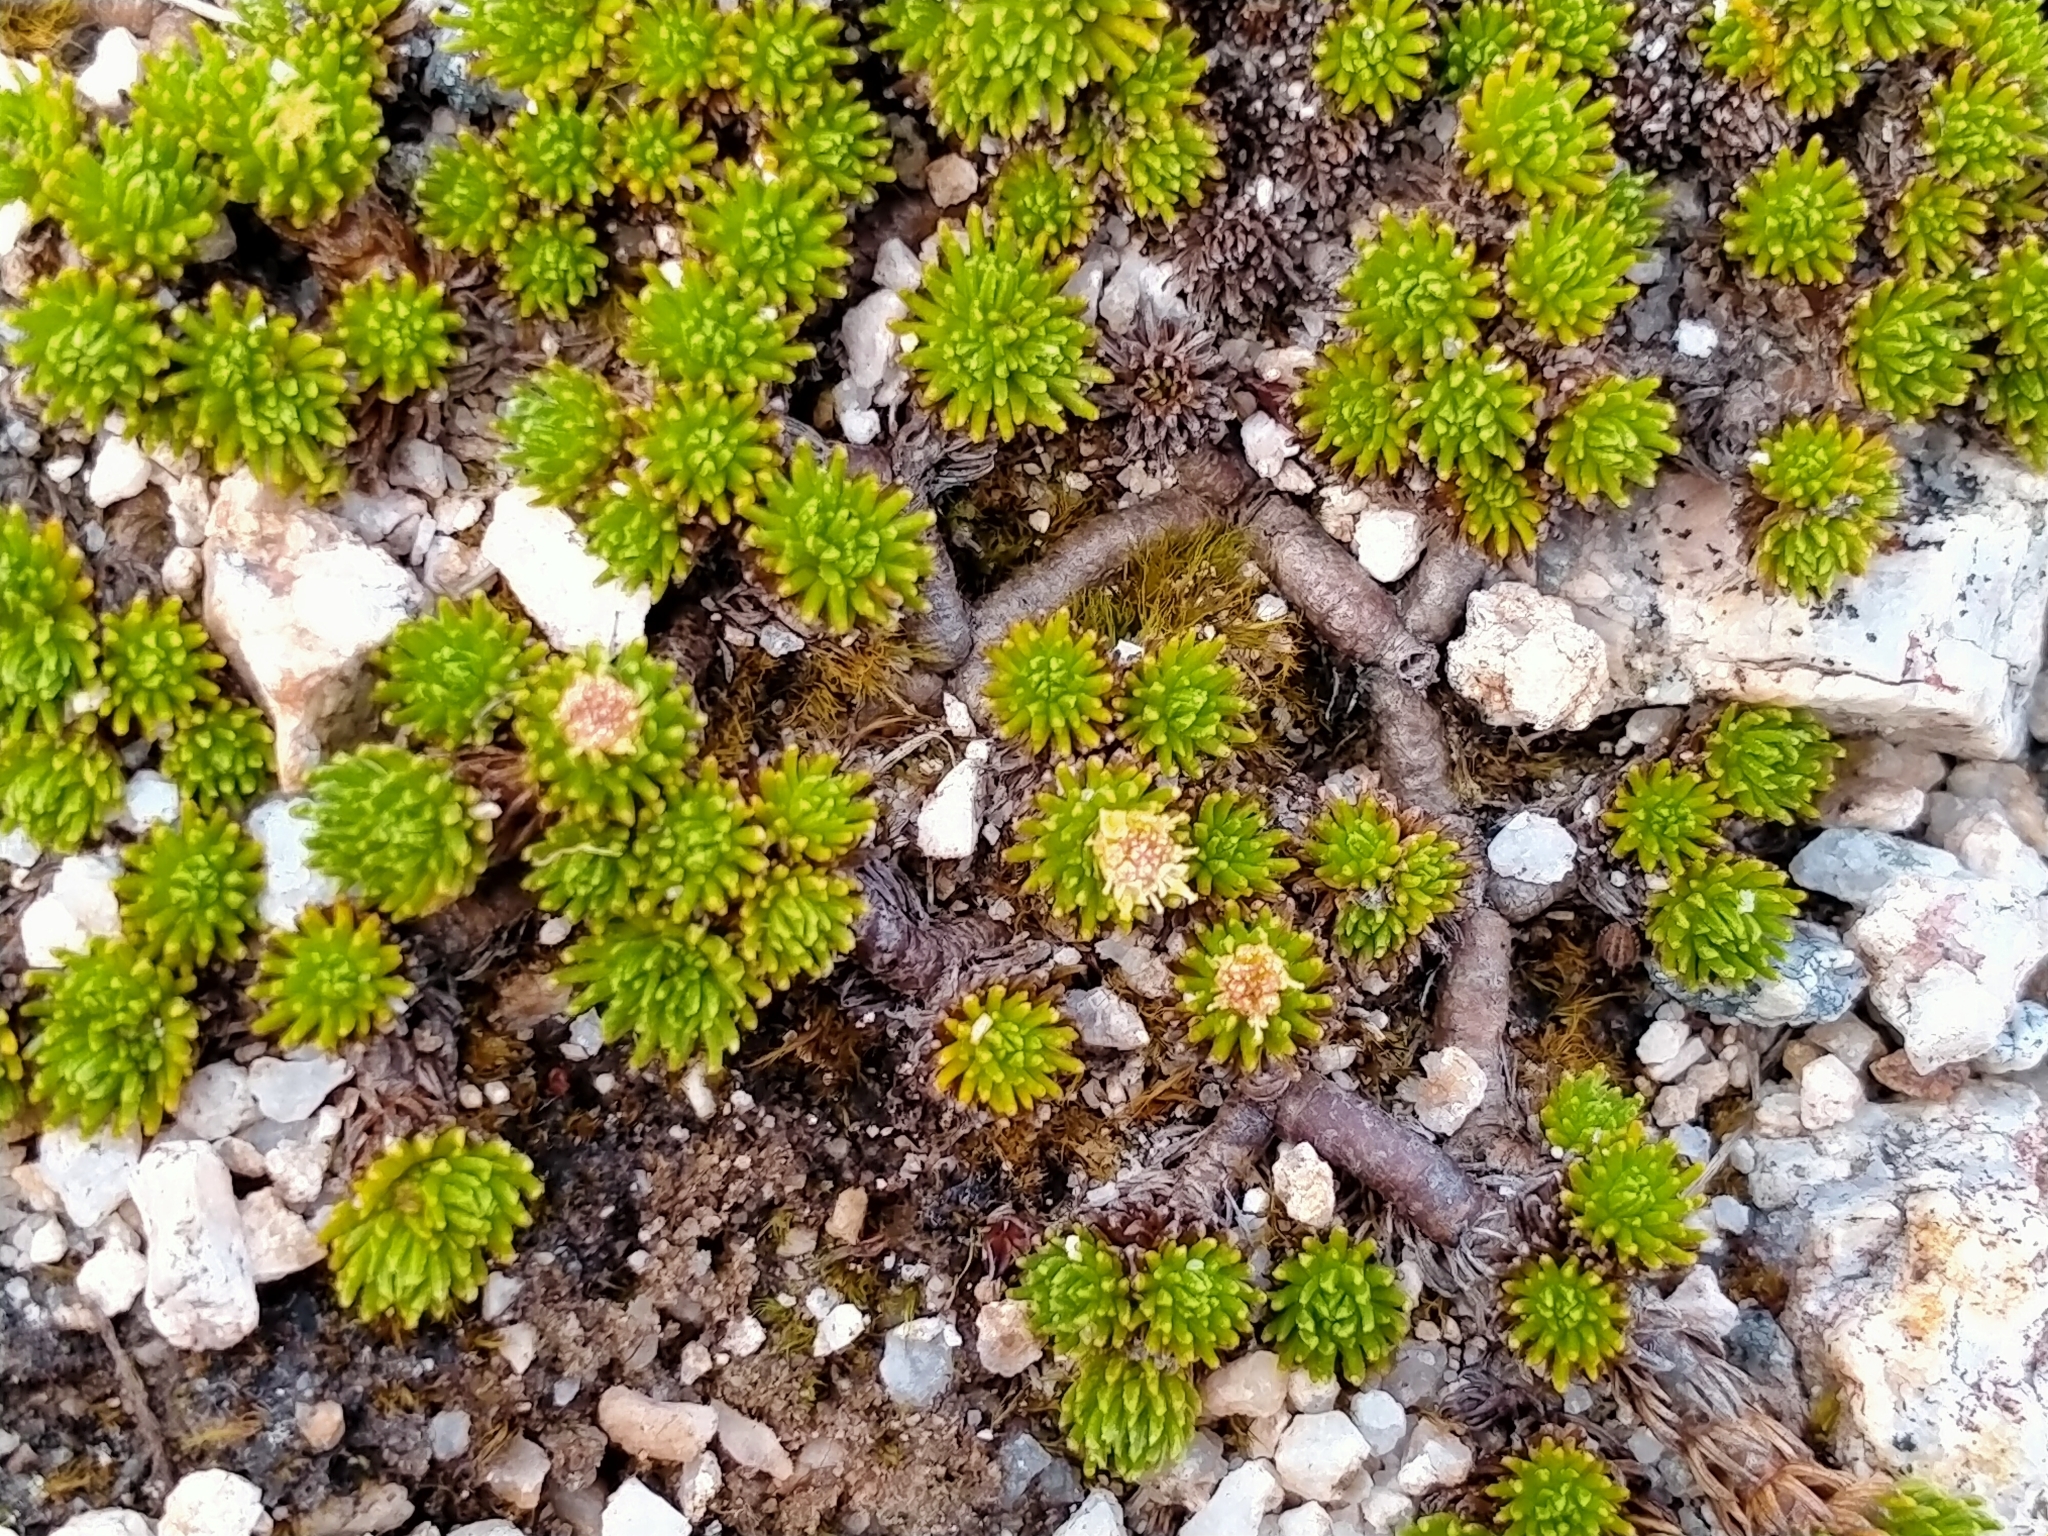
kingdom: Plantae
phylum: Tracheophyta
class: Magnoliopsida
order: Asterales
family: Asteraceae
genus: Leptinella
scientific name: Leptinella goyenii
